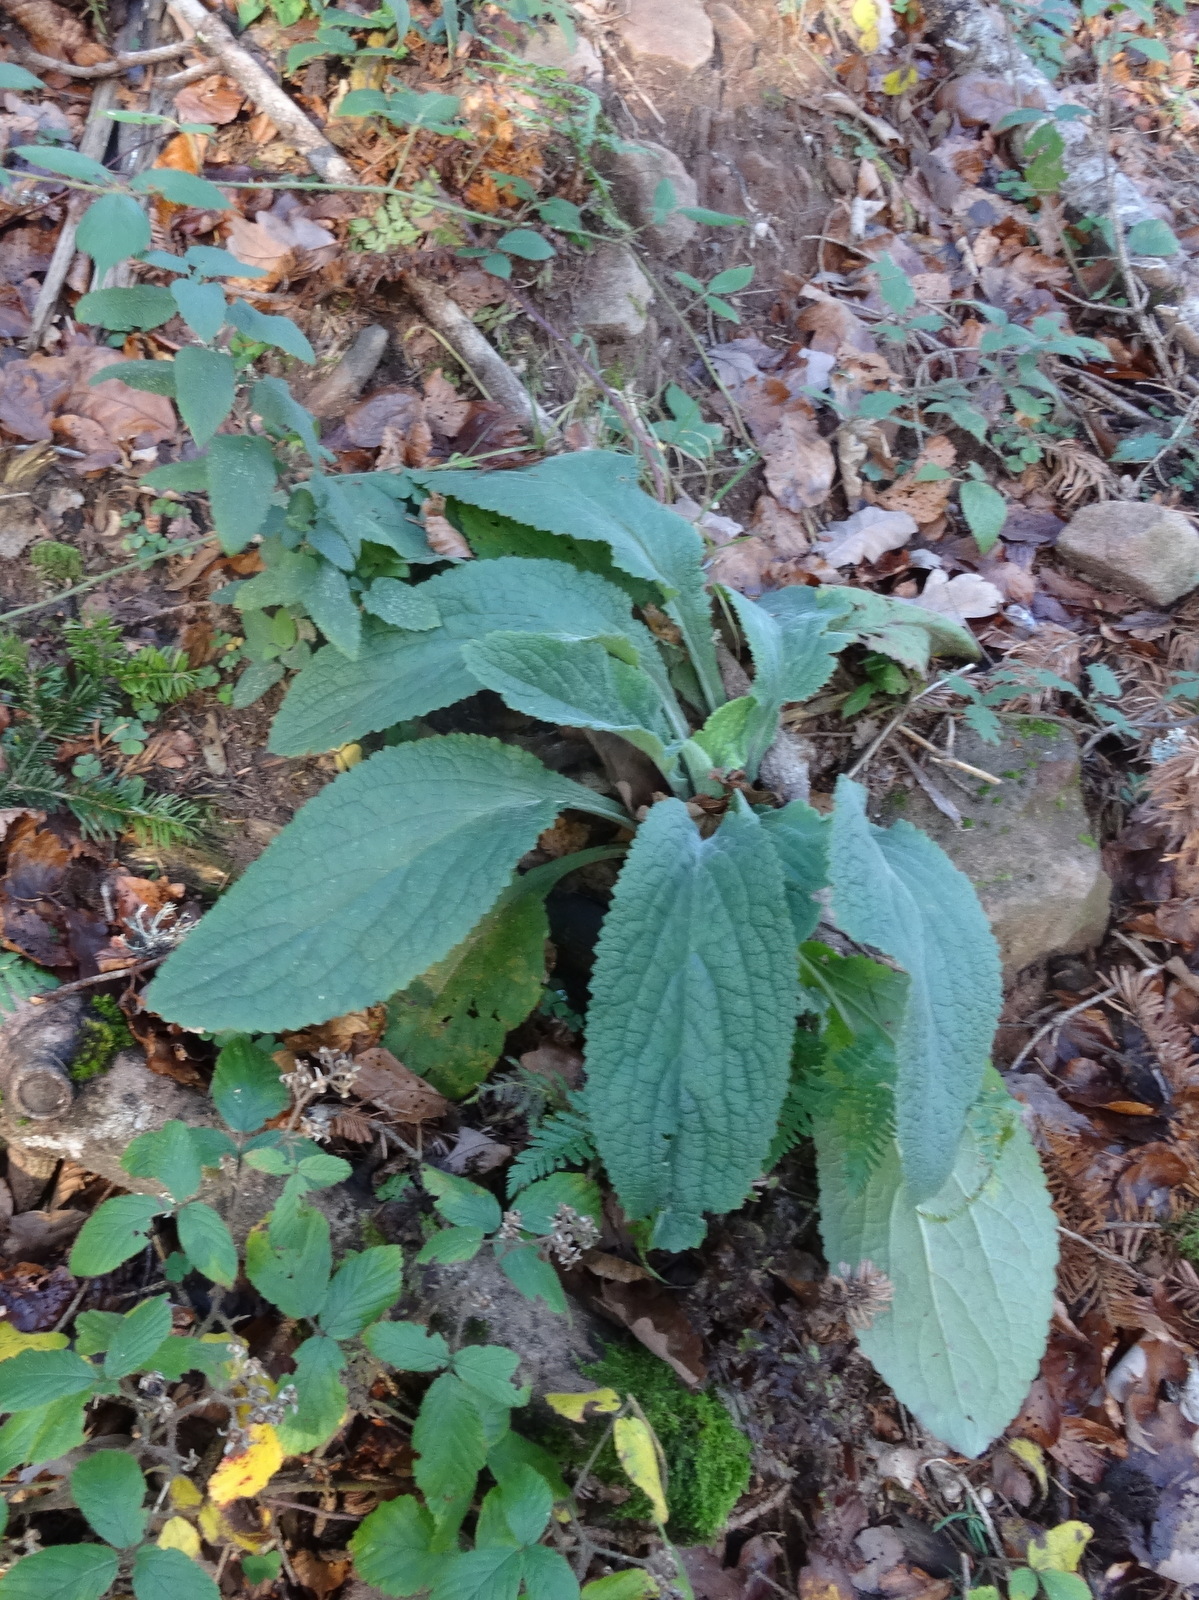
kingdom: Plantae
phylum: Tracheophyta
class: Magnoliopsida
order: Lamiales
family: Plantaginaceae
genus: Digitalis
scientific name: Digitalis purpurea
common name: Foxglove
